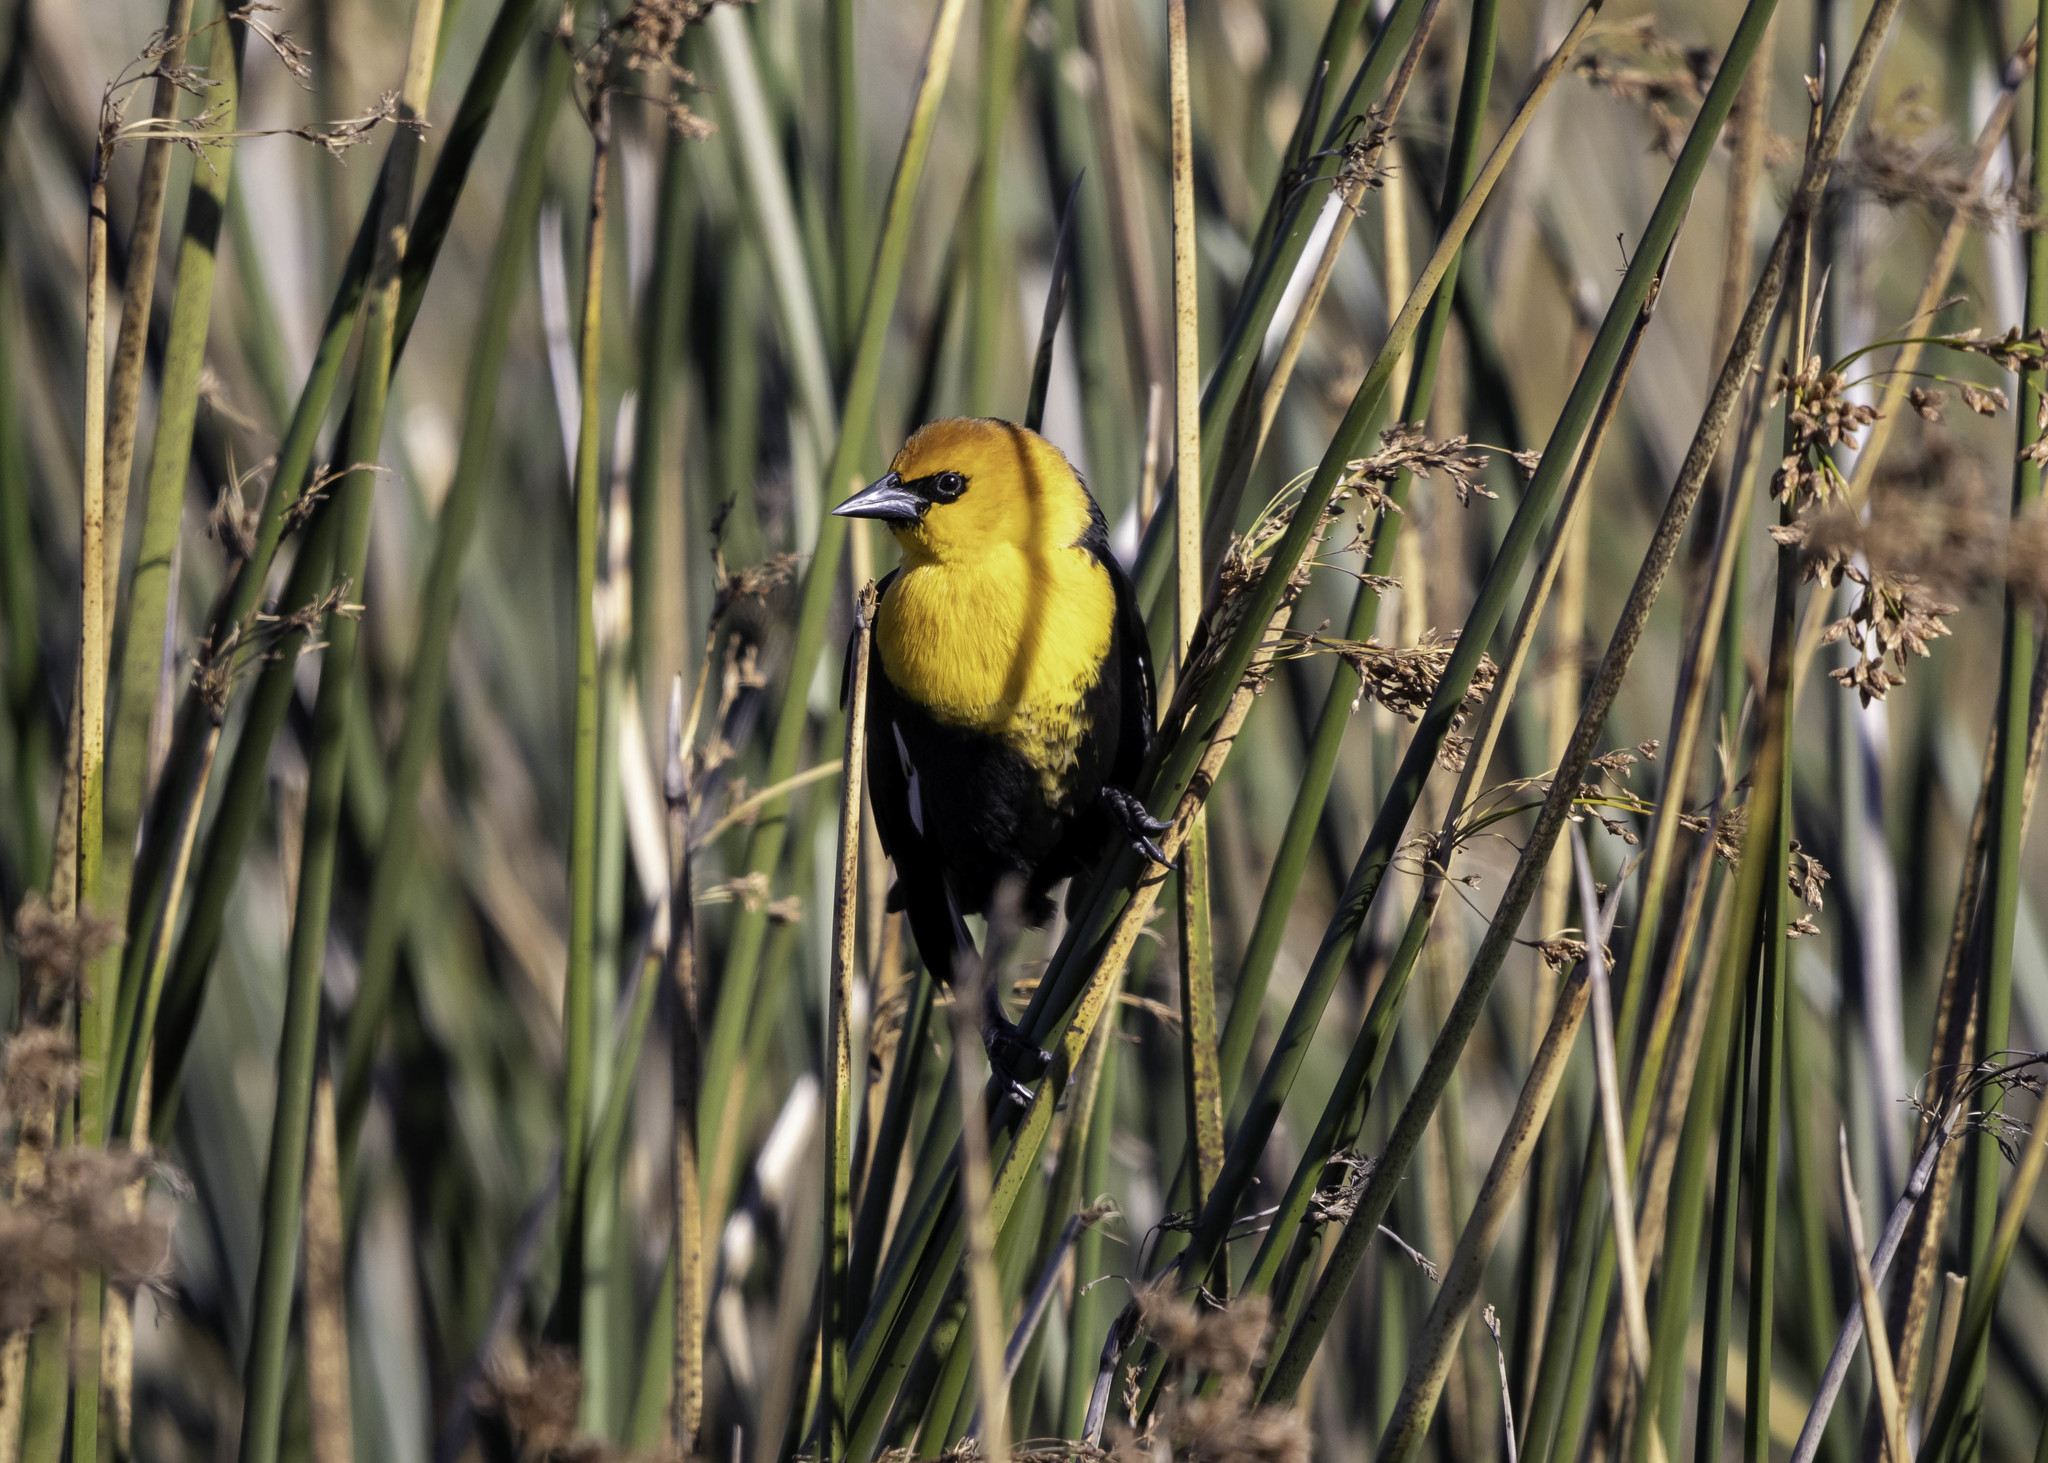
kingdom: Animalia
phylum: Chordata
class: Aves
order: Passeriformes
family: Icteridae
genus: Xanthocephalus
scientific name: Xanthocephalus xanthocephalus
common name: Yellow-headed blackbird
